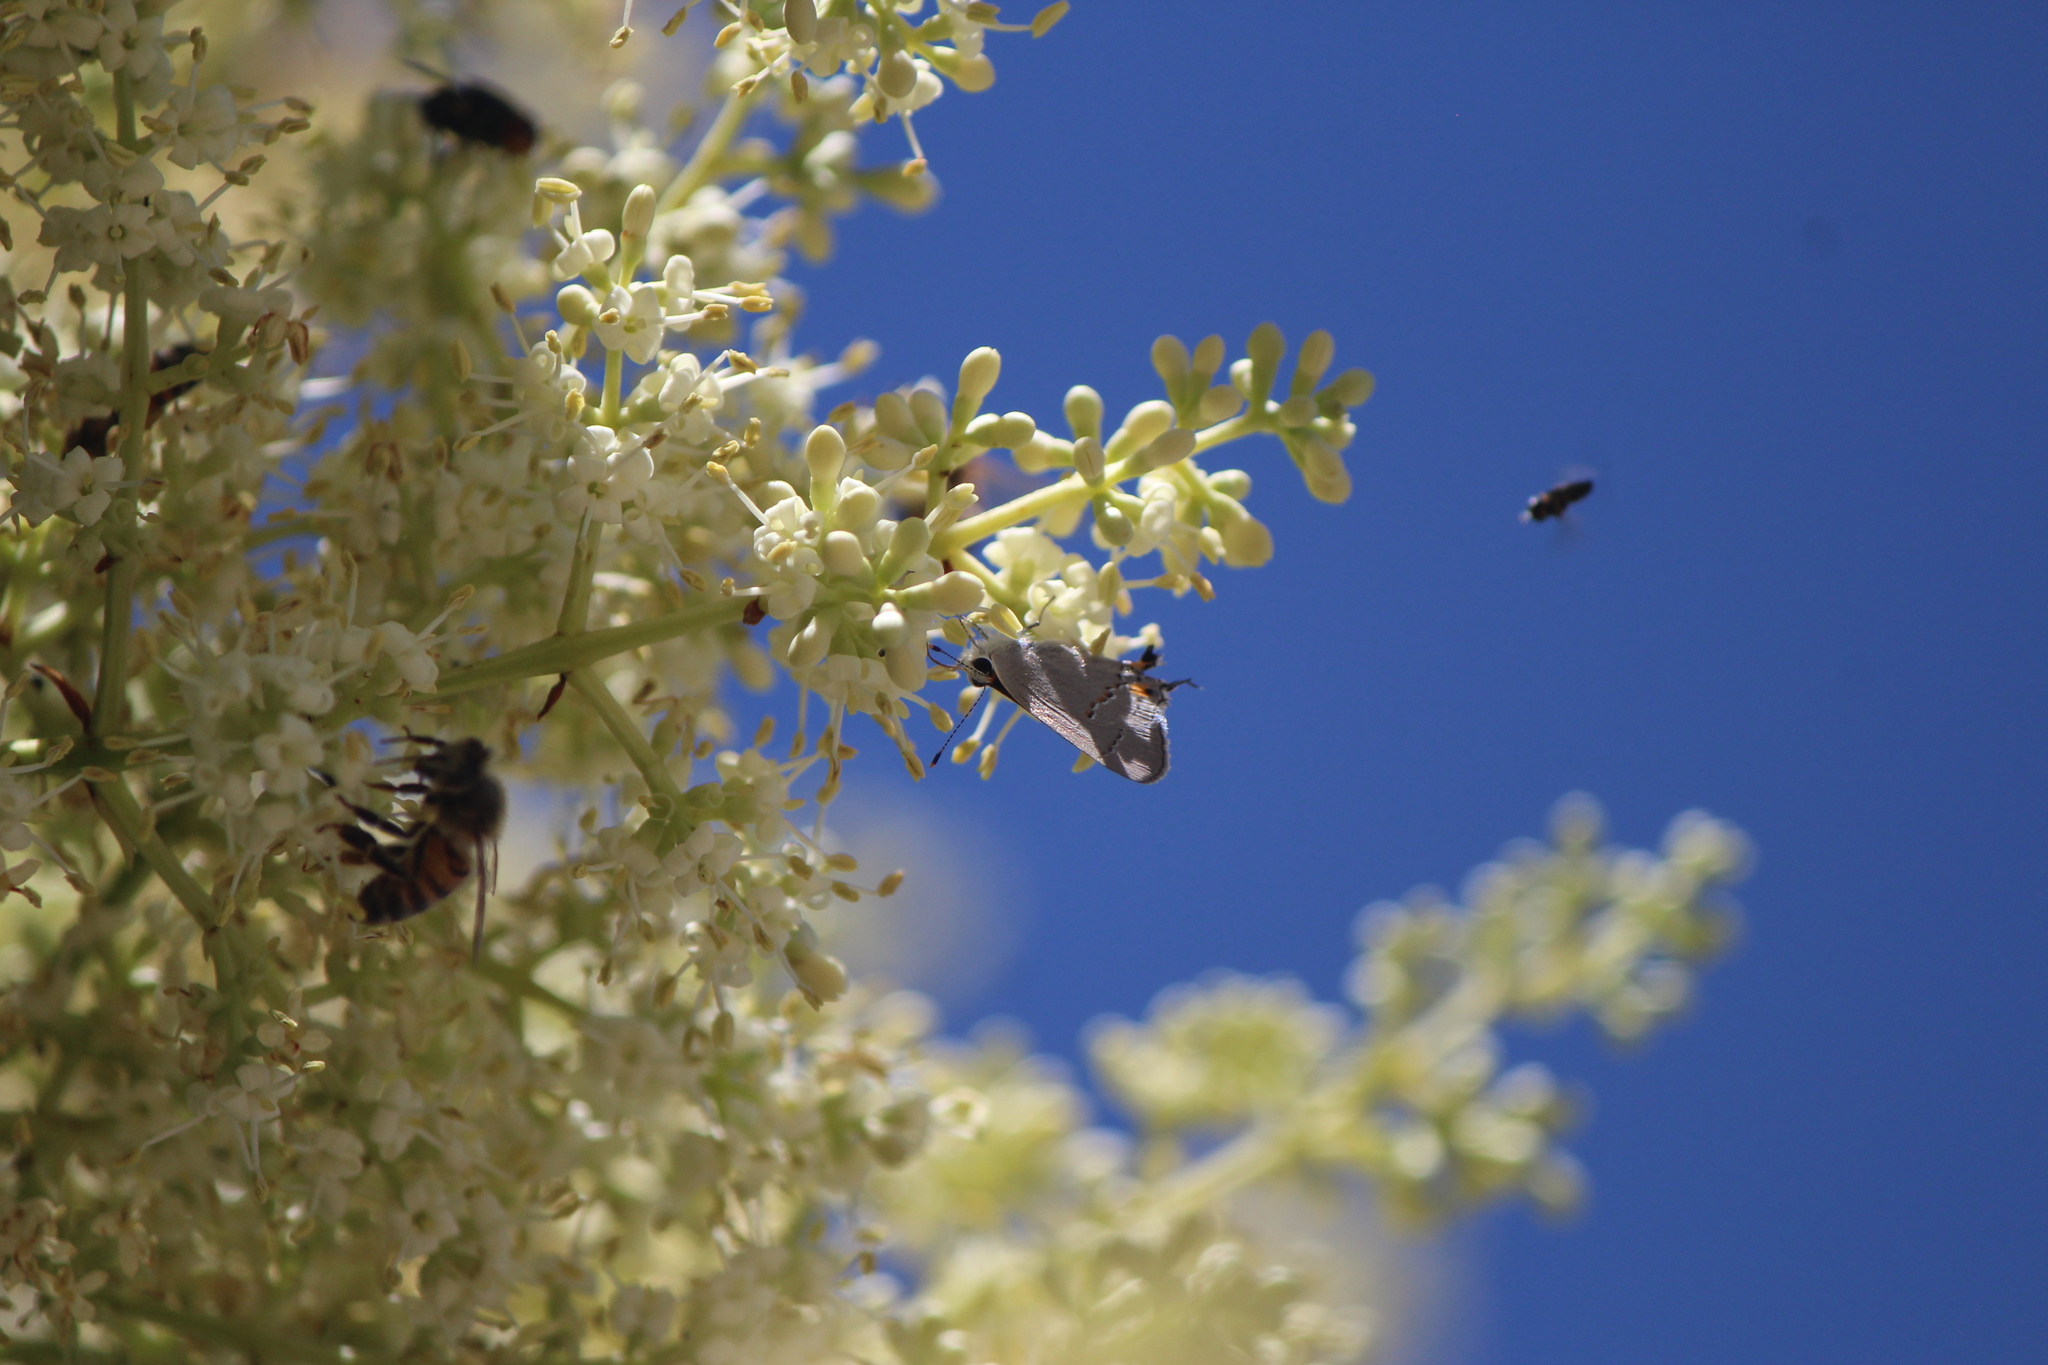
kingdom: Animalia
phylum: Arthropoda
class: Insecta
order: Lepidoptera
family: Lycaenidae
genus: Strymon
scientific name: Strymon melinus
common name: Gray hairstreak
